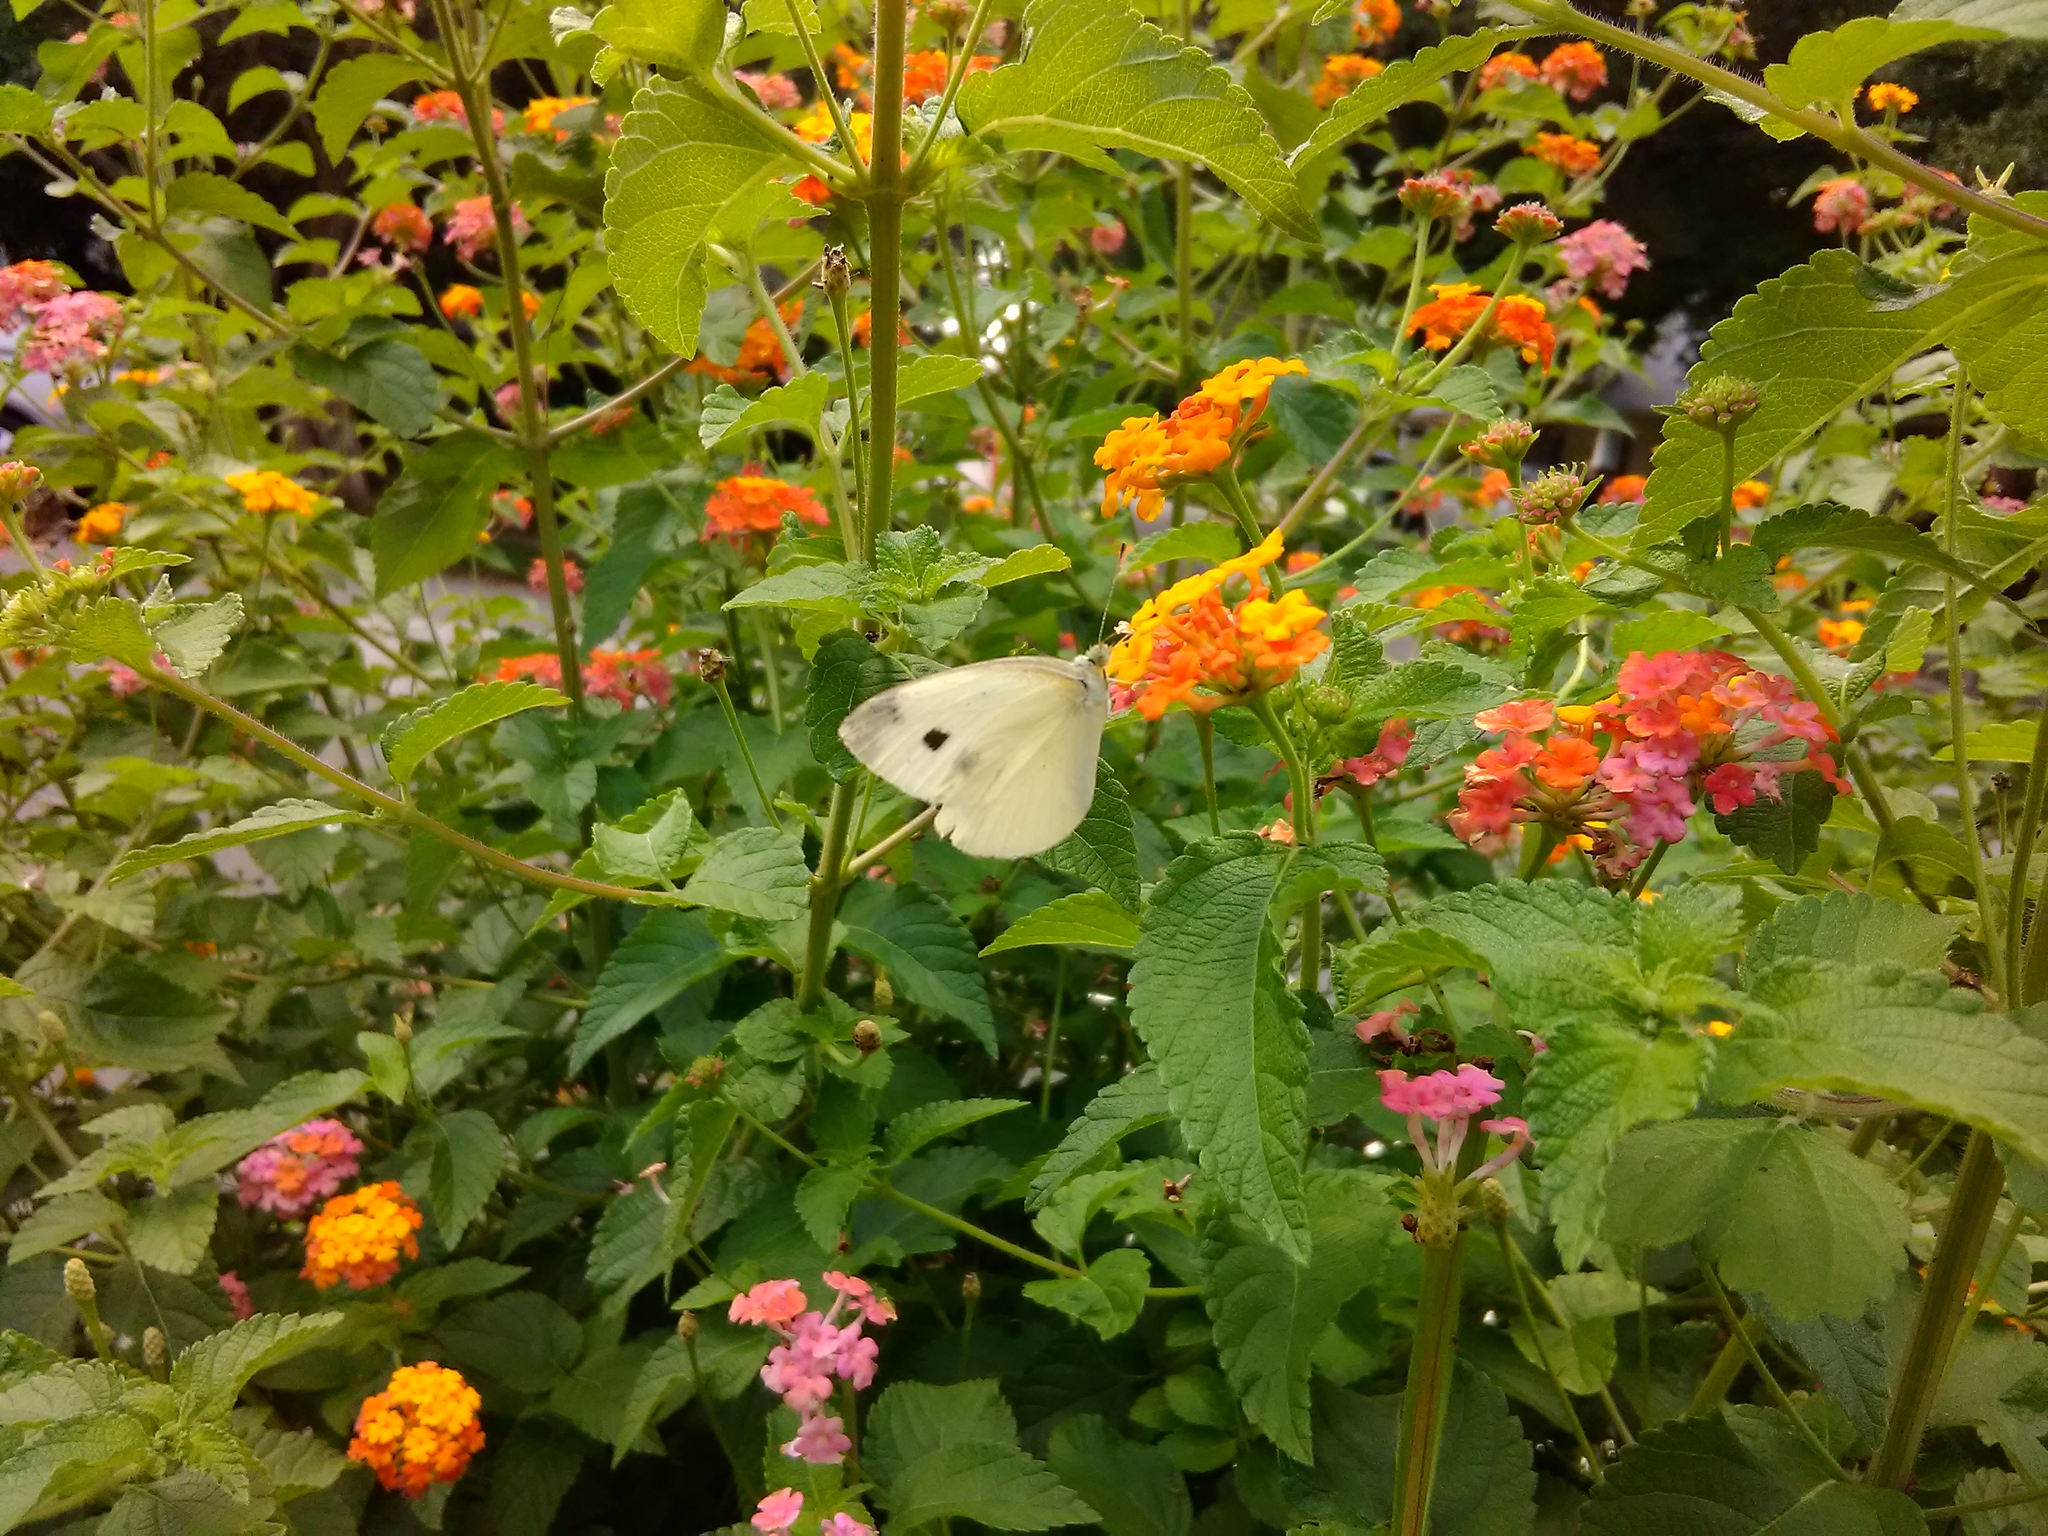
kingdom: Animalia
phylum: Arthropoda
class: Insecta
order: Lepidoptera
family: Pieridae
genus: Pieris
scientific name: Pieris rapae
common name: Small white
